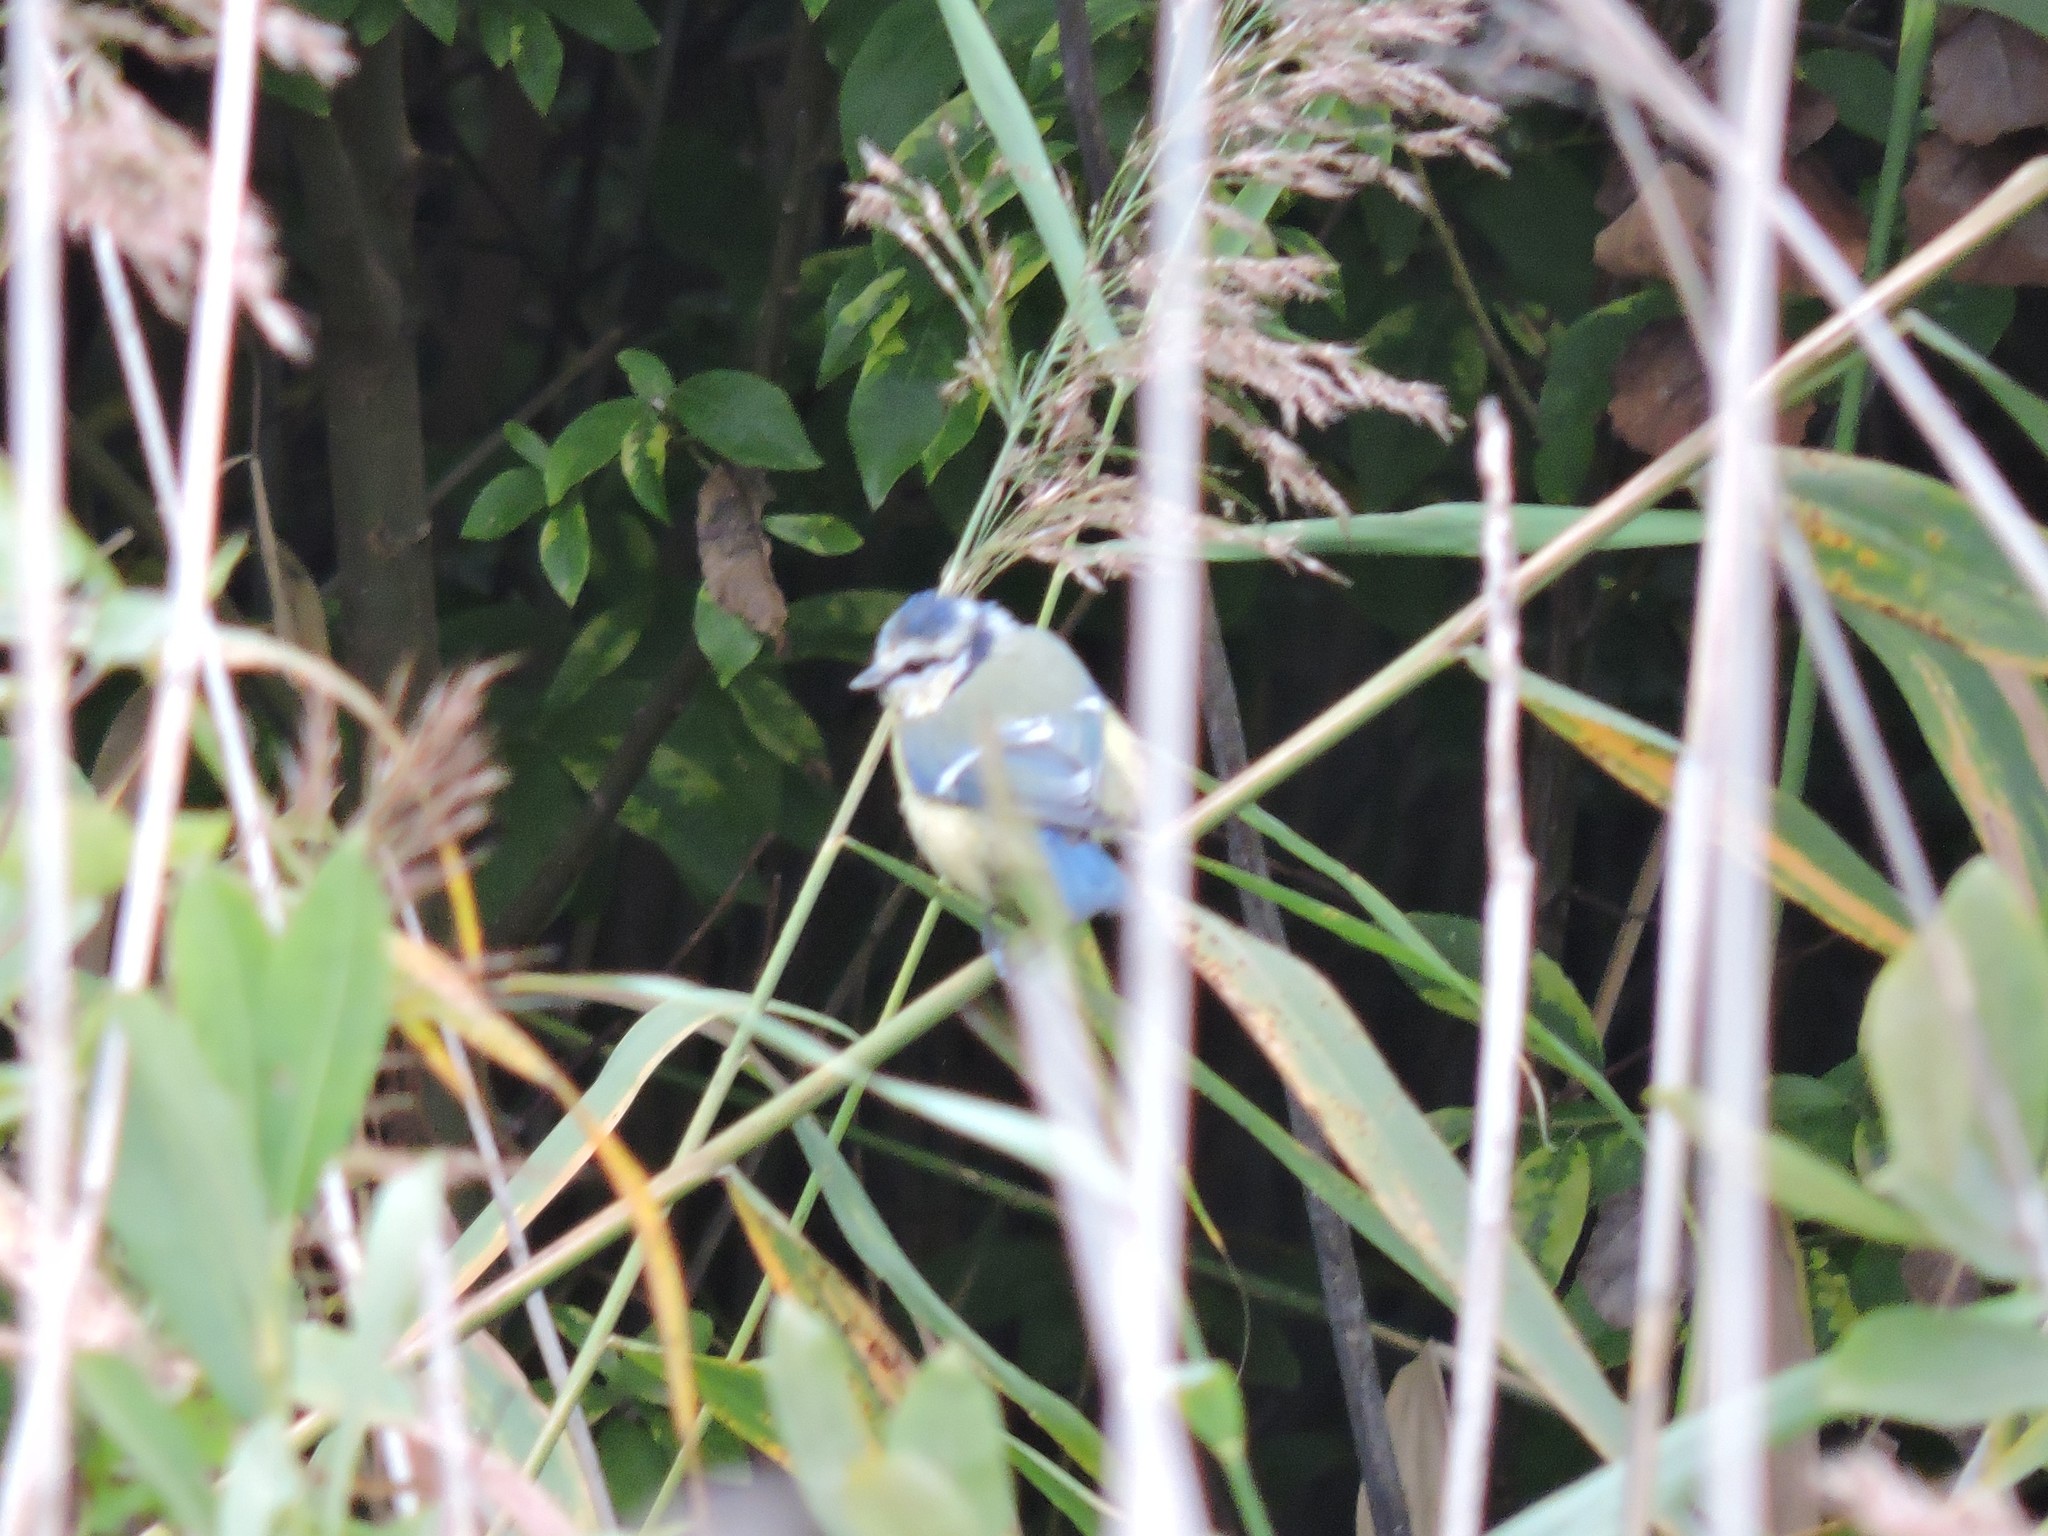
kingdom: Animalia
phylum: Chordata
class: Aves
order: Passeriformes
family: Paridae
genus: Cyanistes
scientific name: Cyanistes caeruleus
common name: Eurasian blue tit
